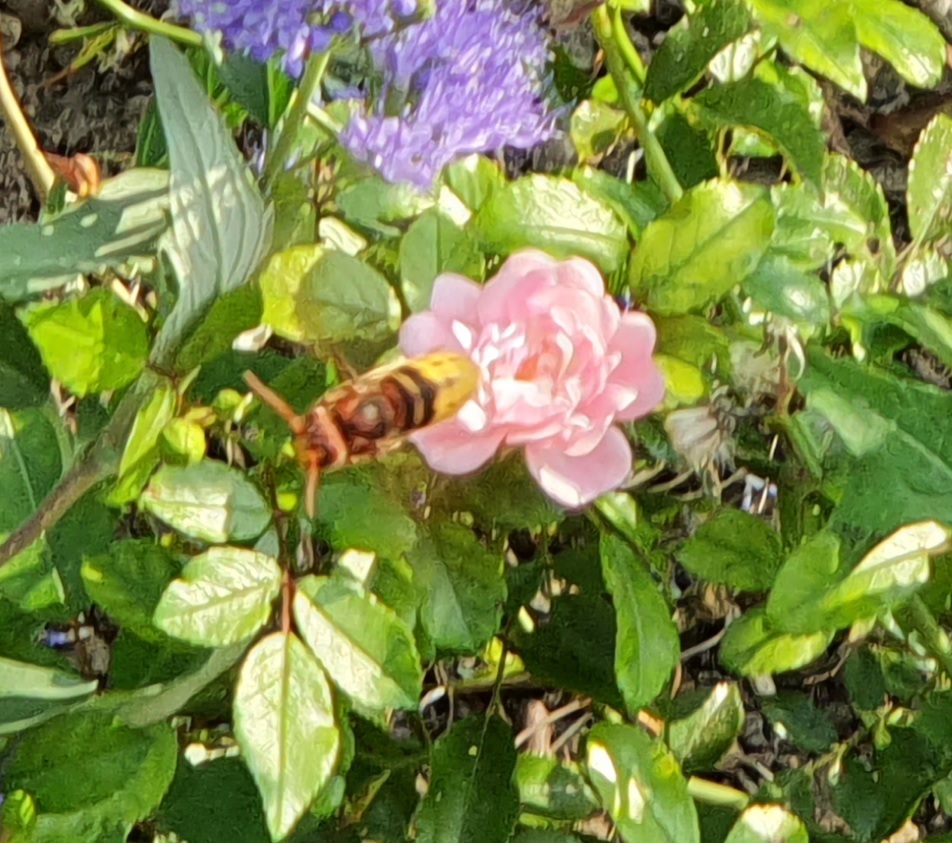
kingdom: Animalia
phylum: Arthropoda
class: Insecta
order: Hymenoptera
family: Vespidae
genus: Vespa
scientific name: Vespa crabro
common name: Hornet
